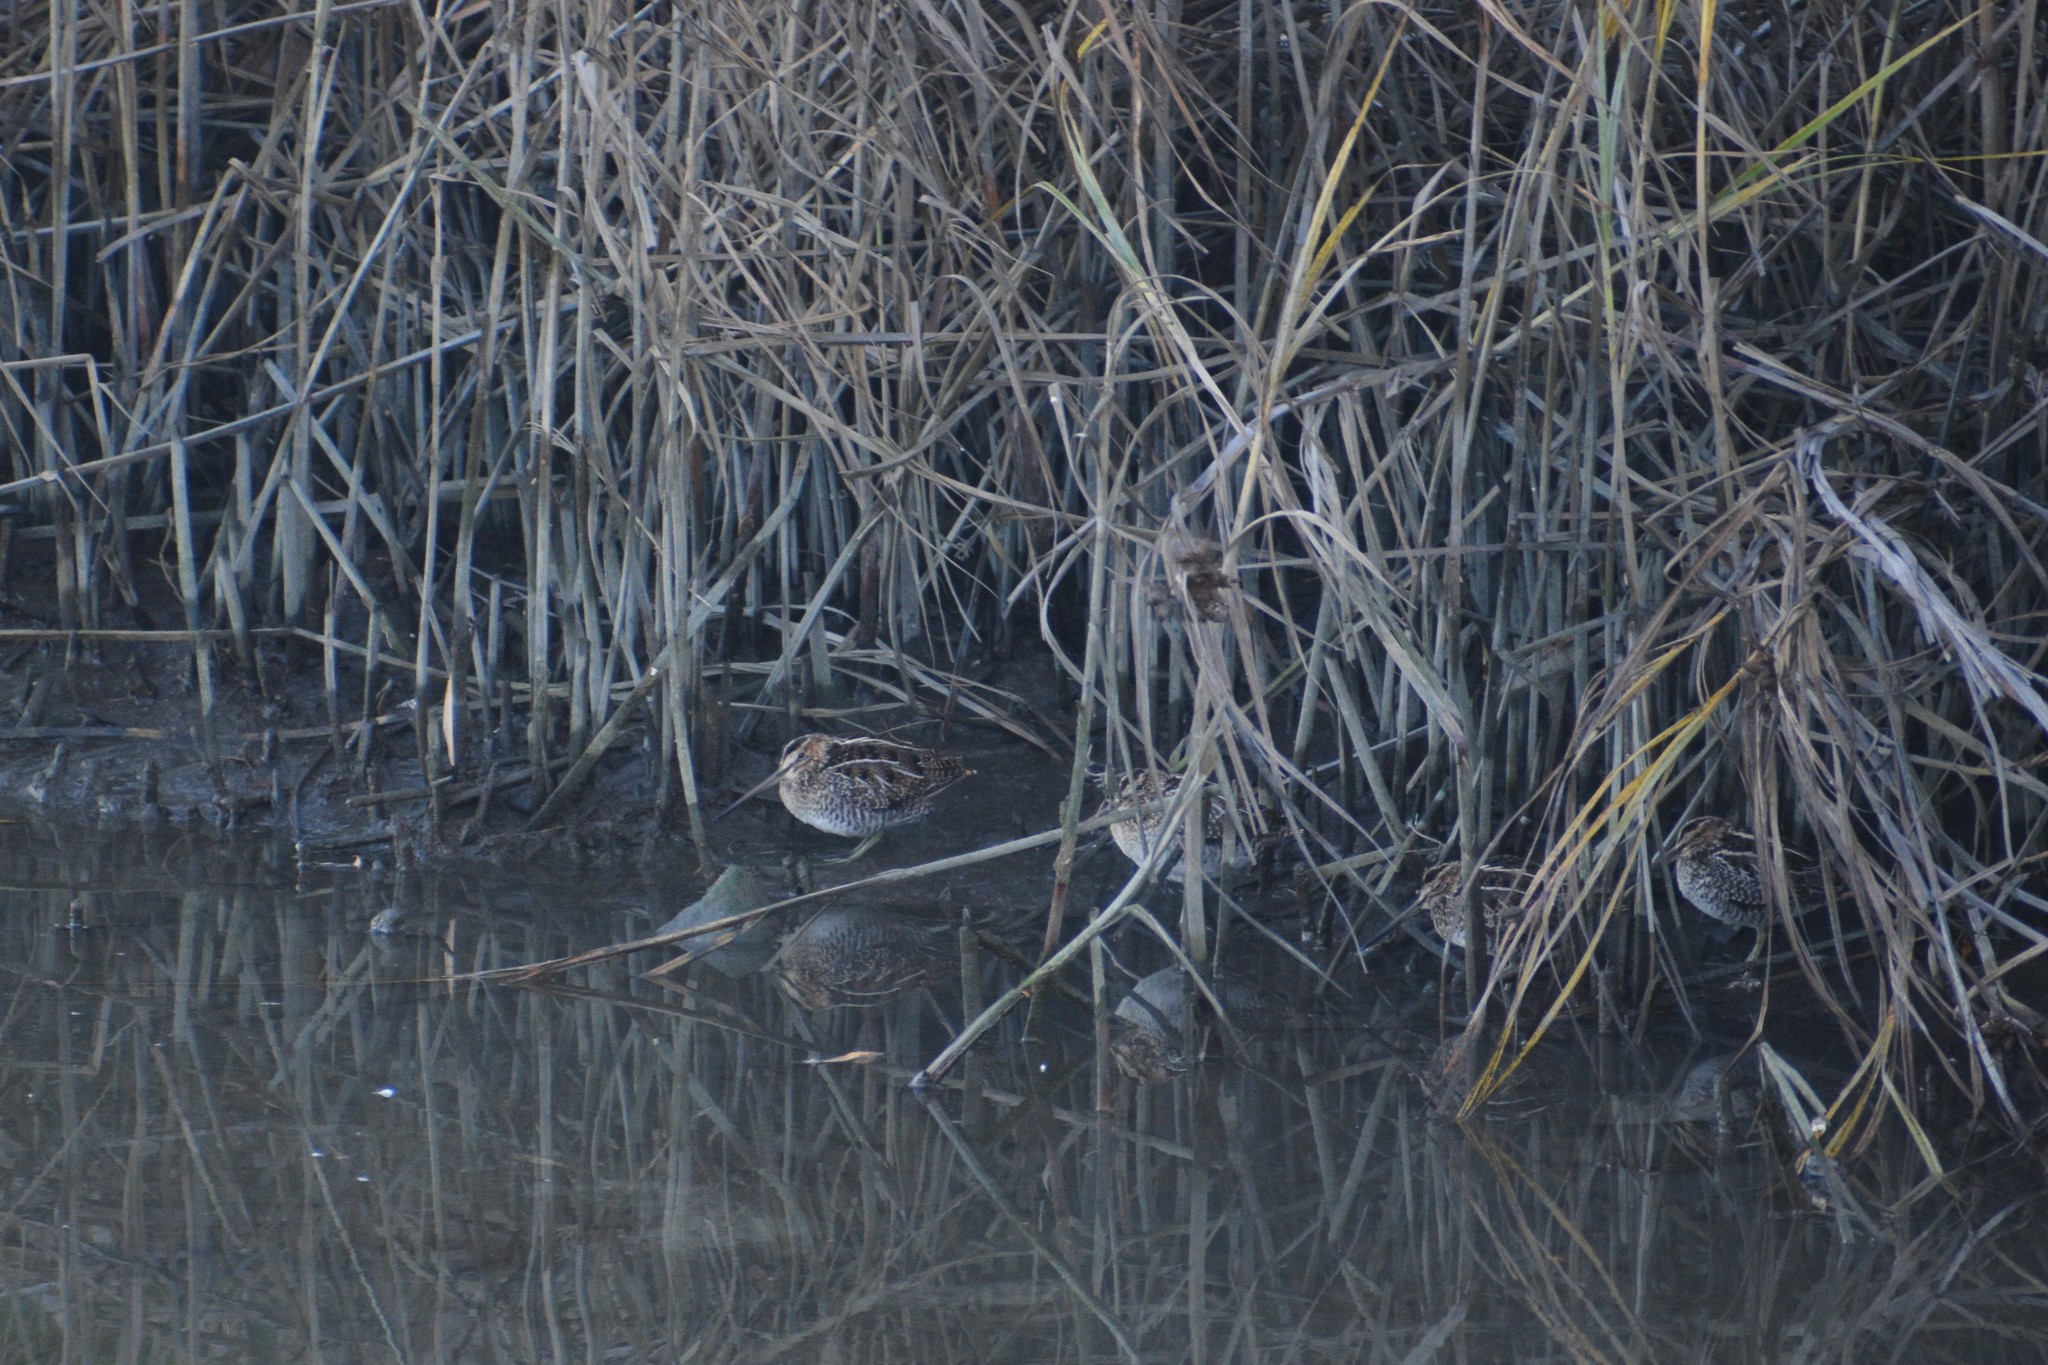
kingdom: Animalia
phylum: Chordata
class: Aves
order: Charadriiformes
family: Scolopacidae
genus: Gallinago
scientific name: Gallinago delicata
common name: Wilson's snipe
